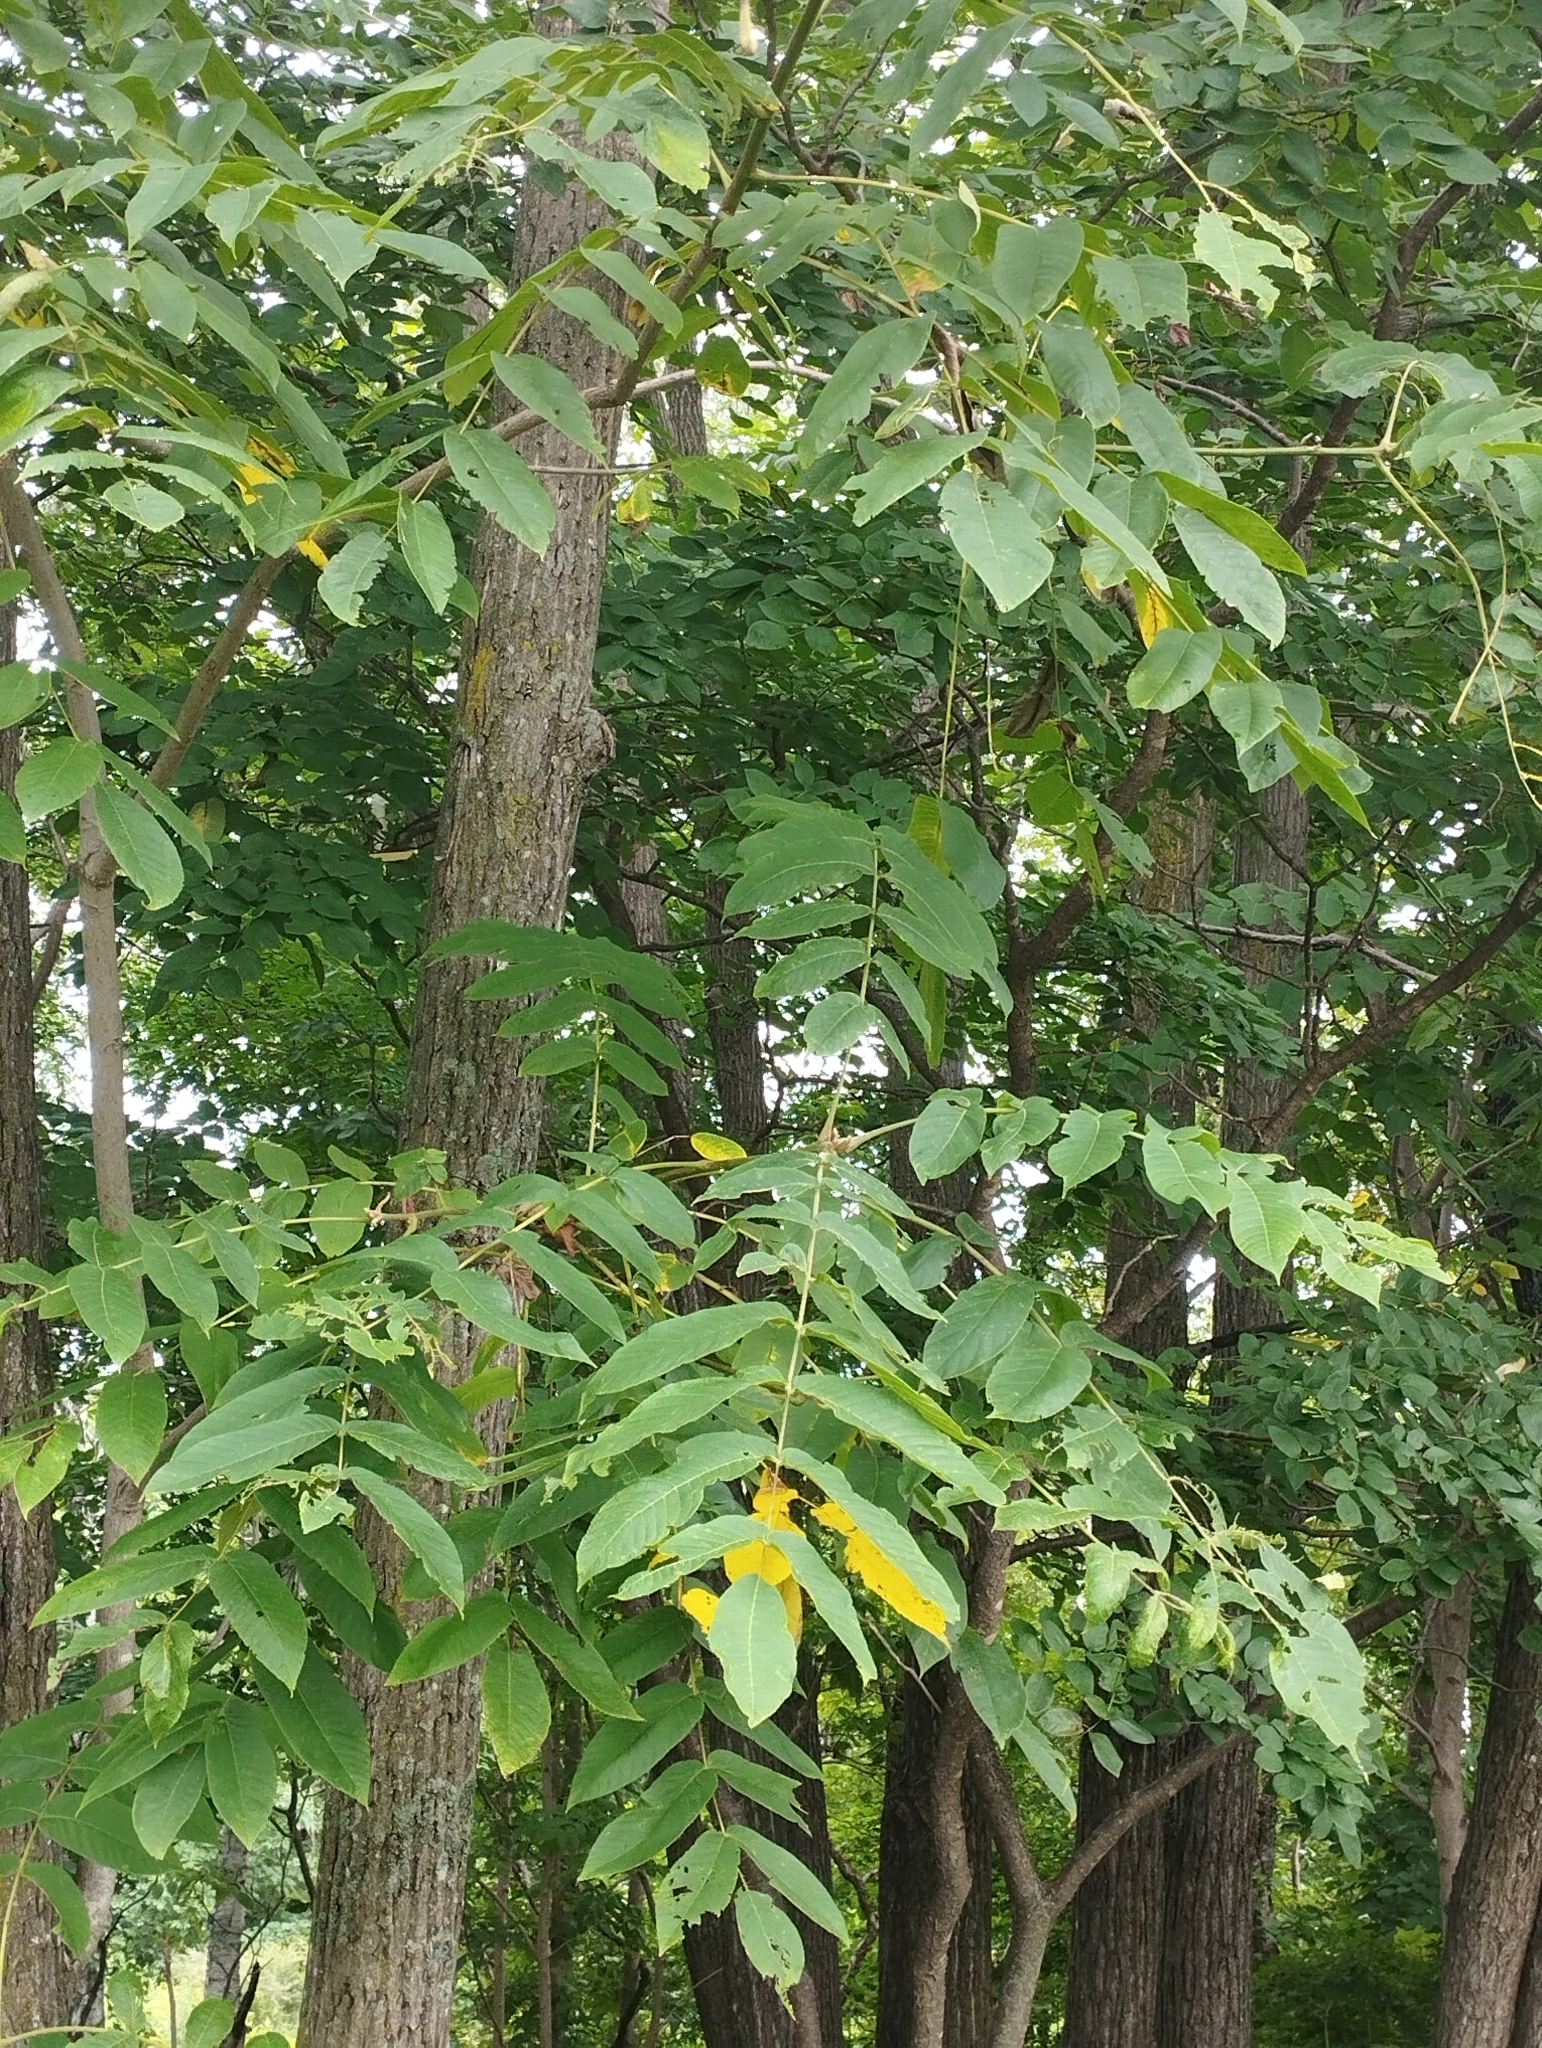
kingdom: Plantae
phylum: Tracheophyta
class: Magnoliopsida
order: Fagales
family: Juglandaceae
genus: Juglans
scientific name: Juglans mandshurica
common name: Manchurian walnut
